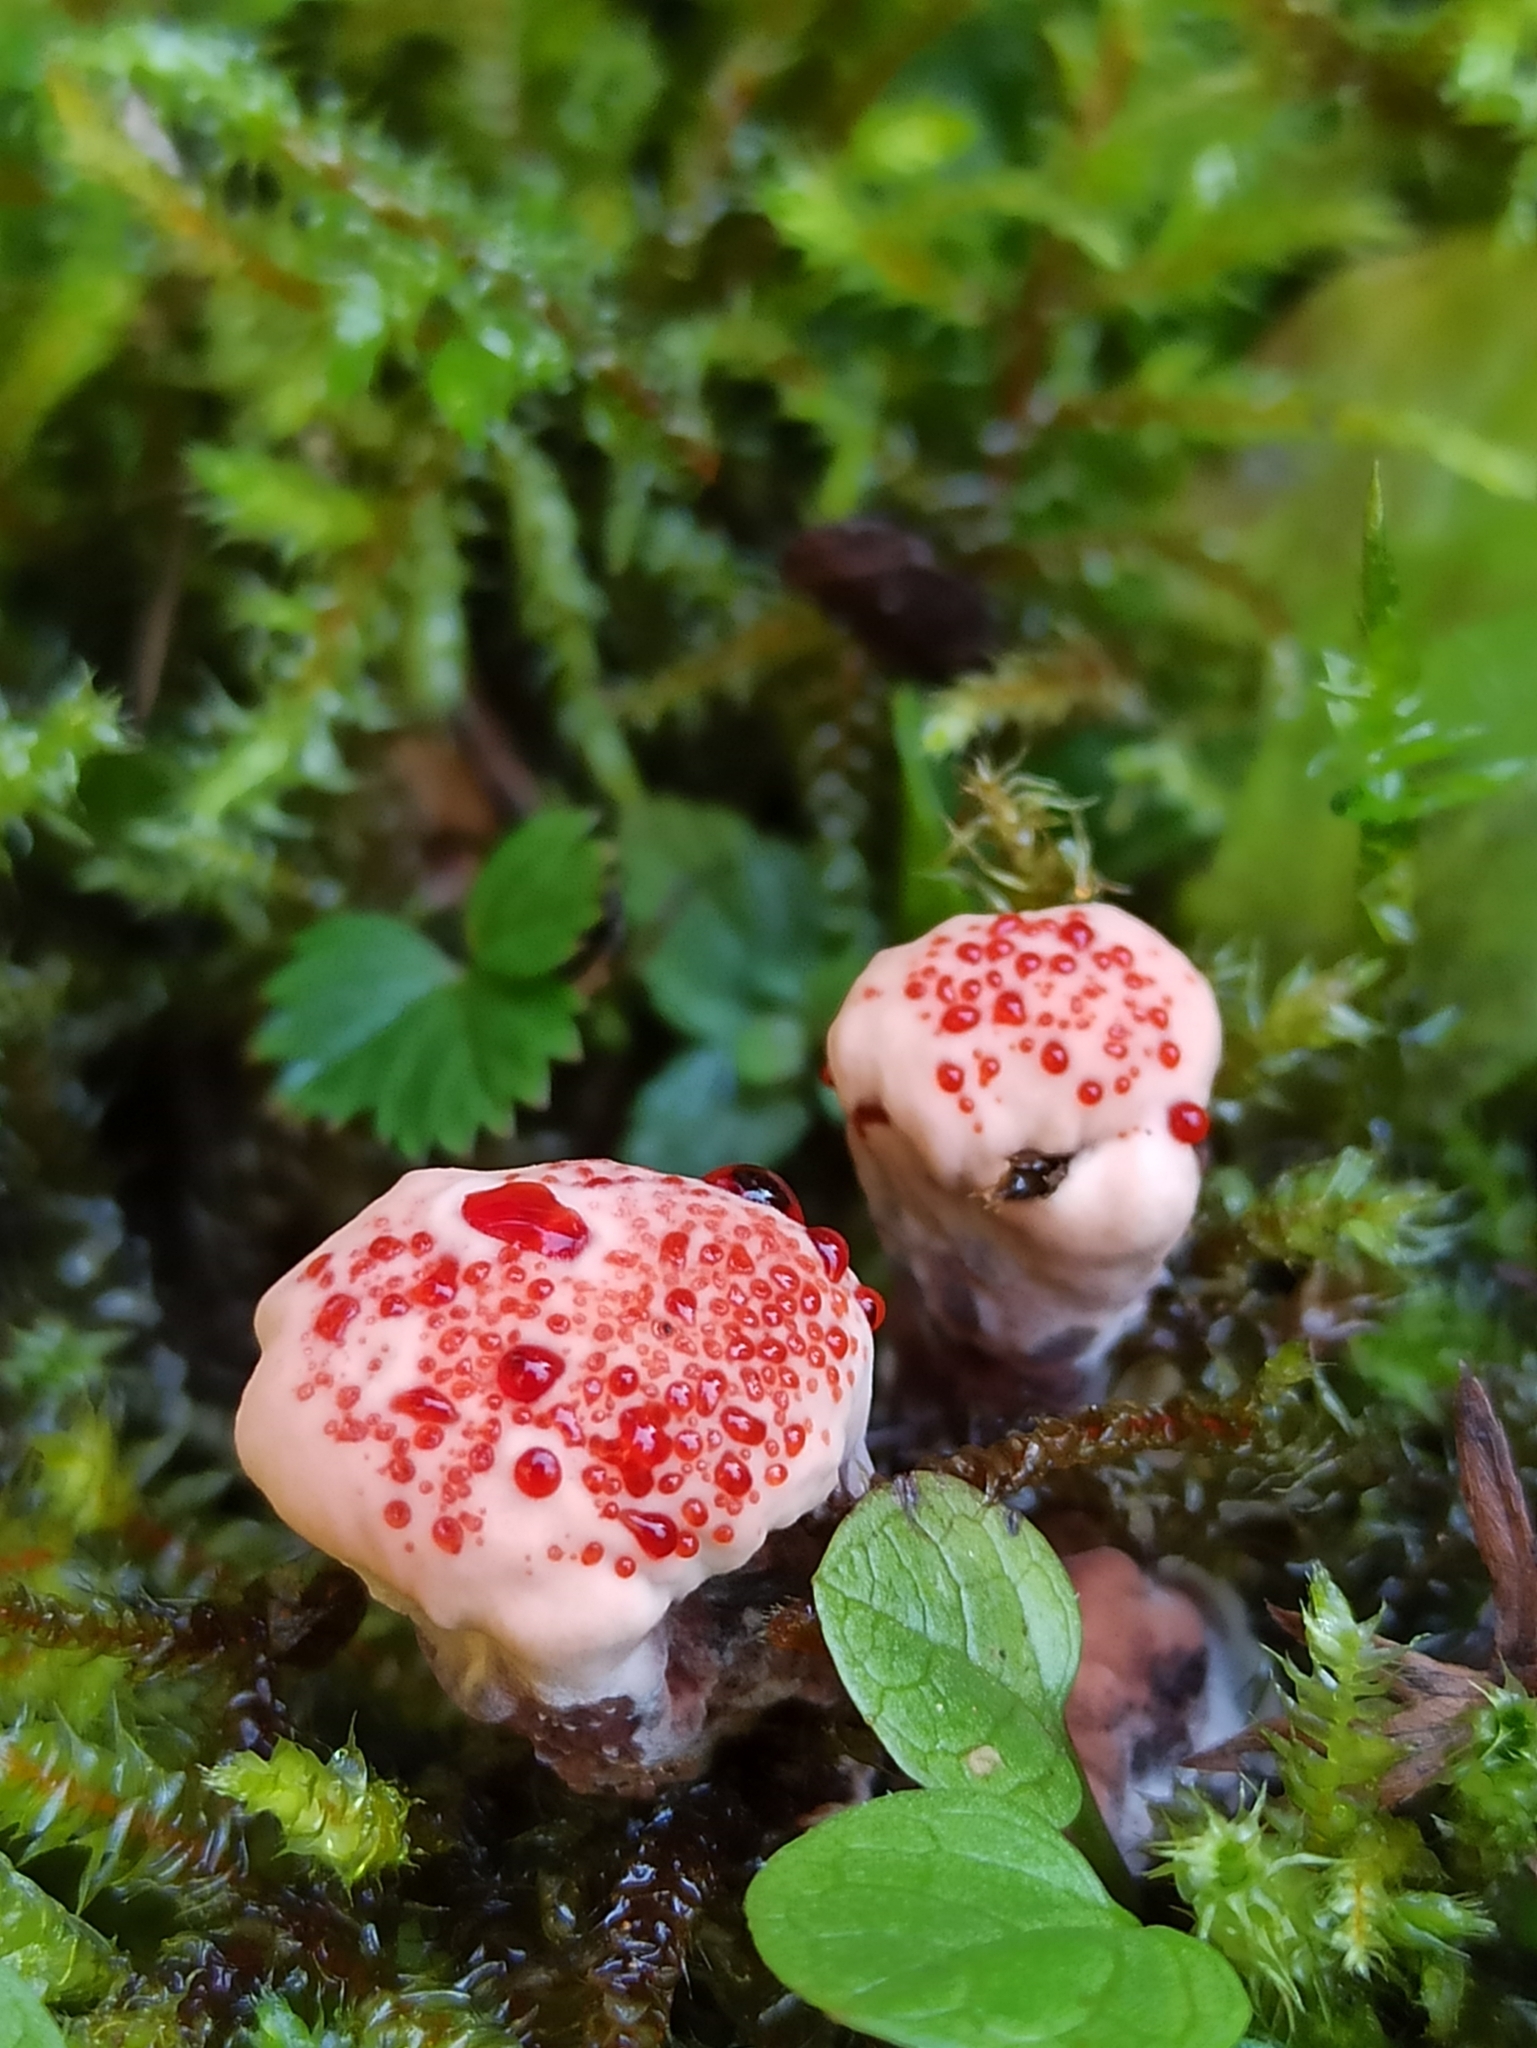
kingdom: Fungi
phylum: Basidiomycota
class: Agaricomycetes
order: Thelephorales
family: Bankeraceae
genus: Hydnellum
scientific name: Hydnellum peckii
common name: Devil's tooth
